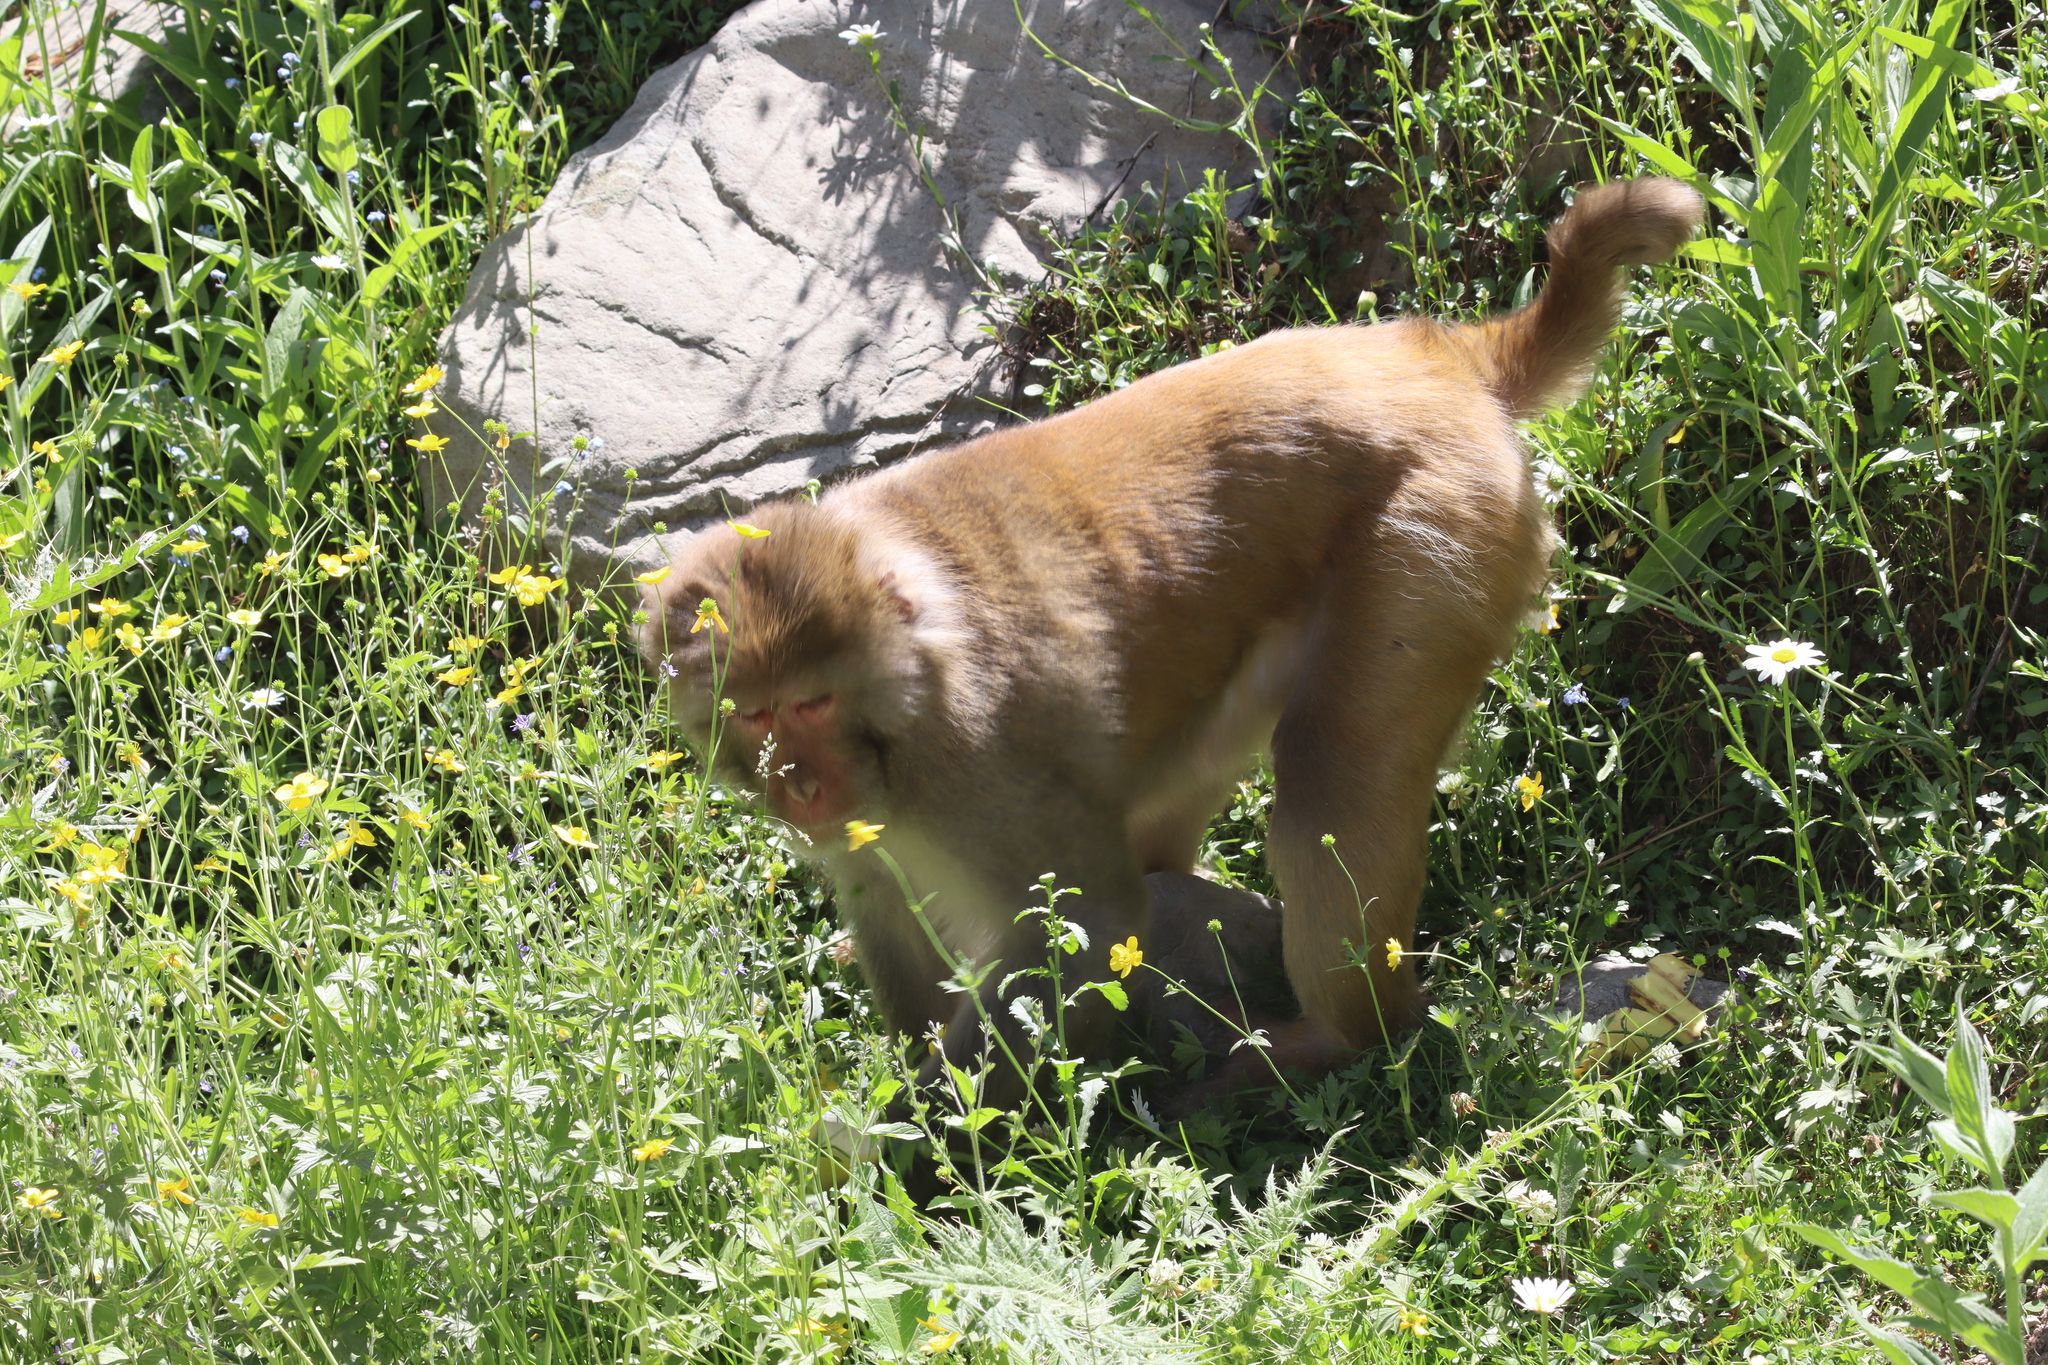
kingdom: Animalia
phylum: Chordata
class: Mammalia
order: Primates
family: Cercopithecidae
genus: Macaca
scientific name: Macaca mulatta
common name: Rhesus monkey
